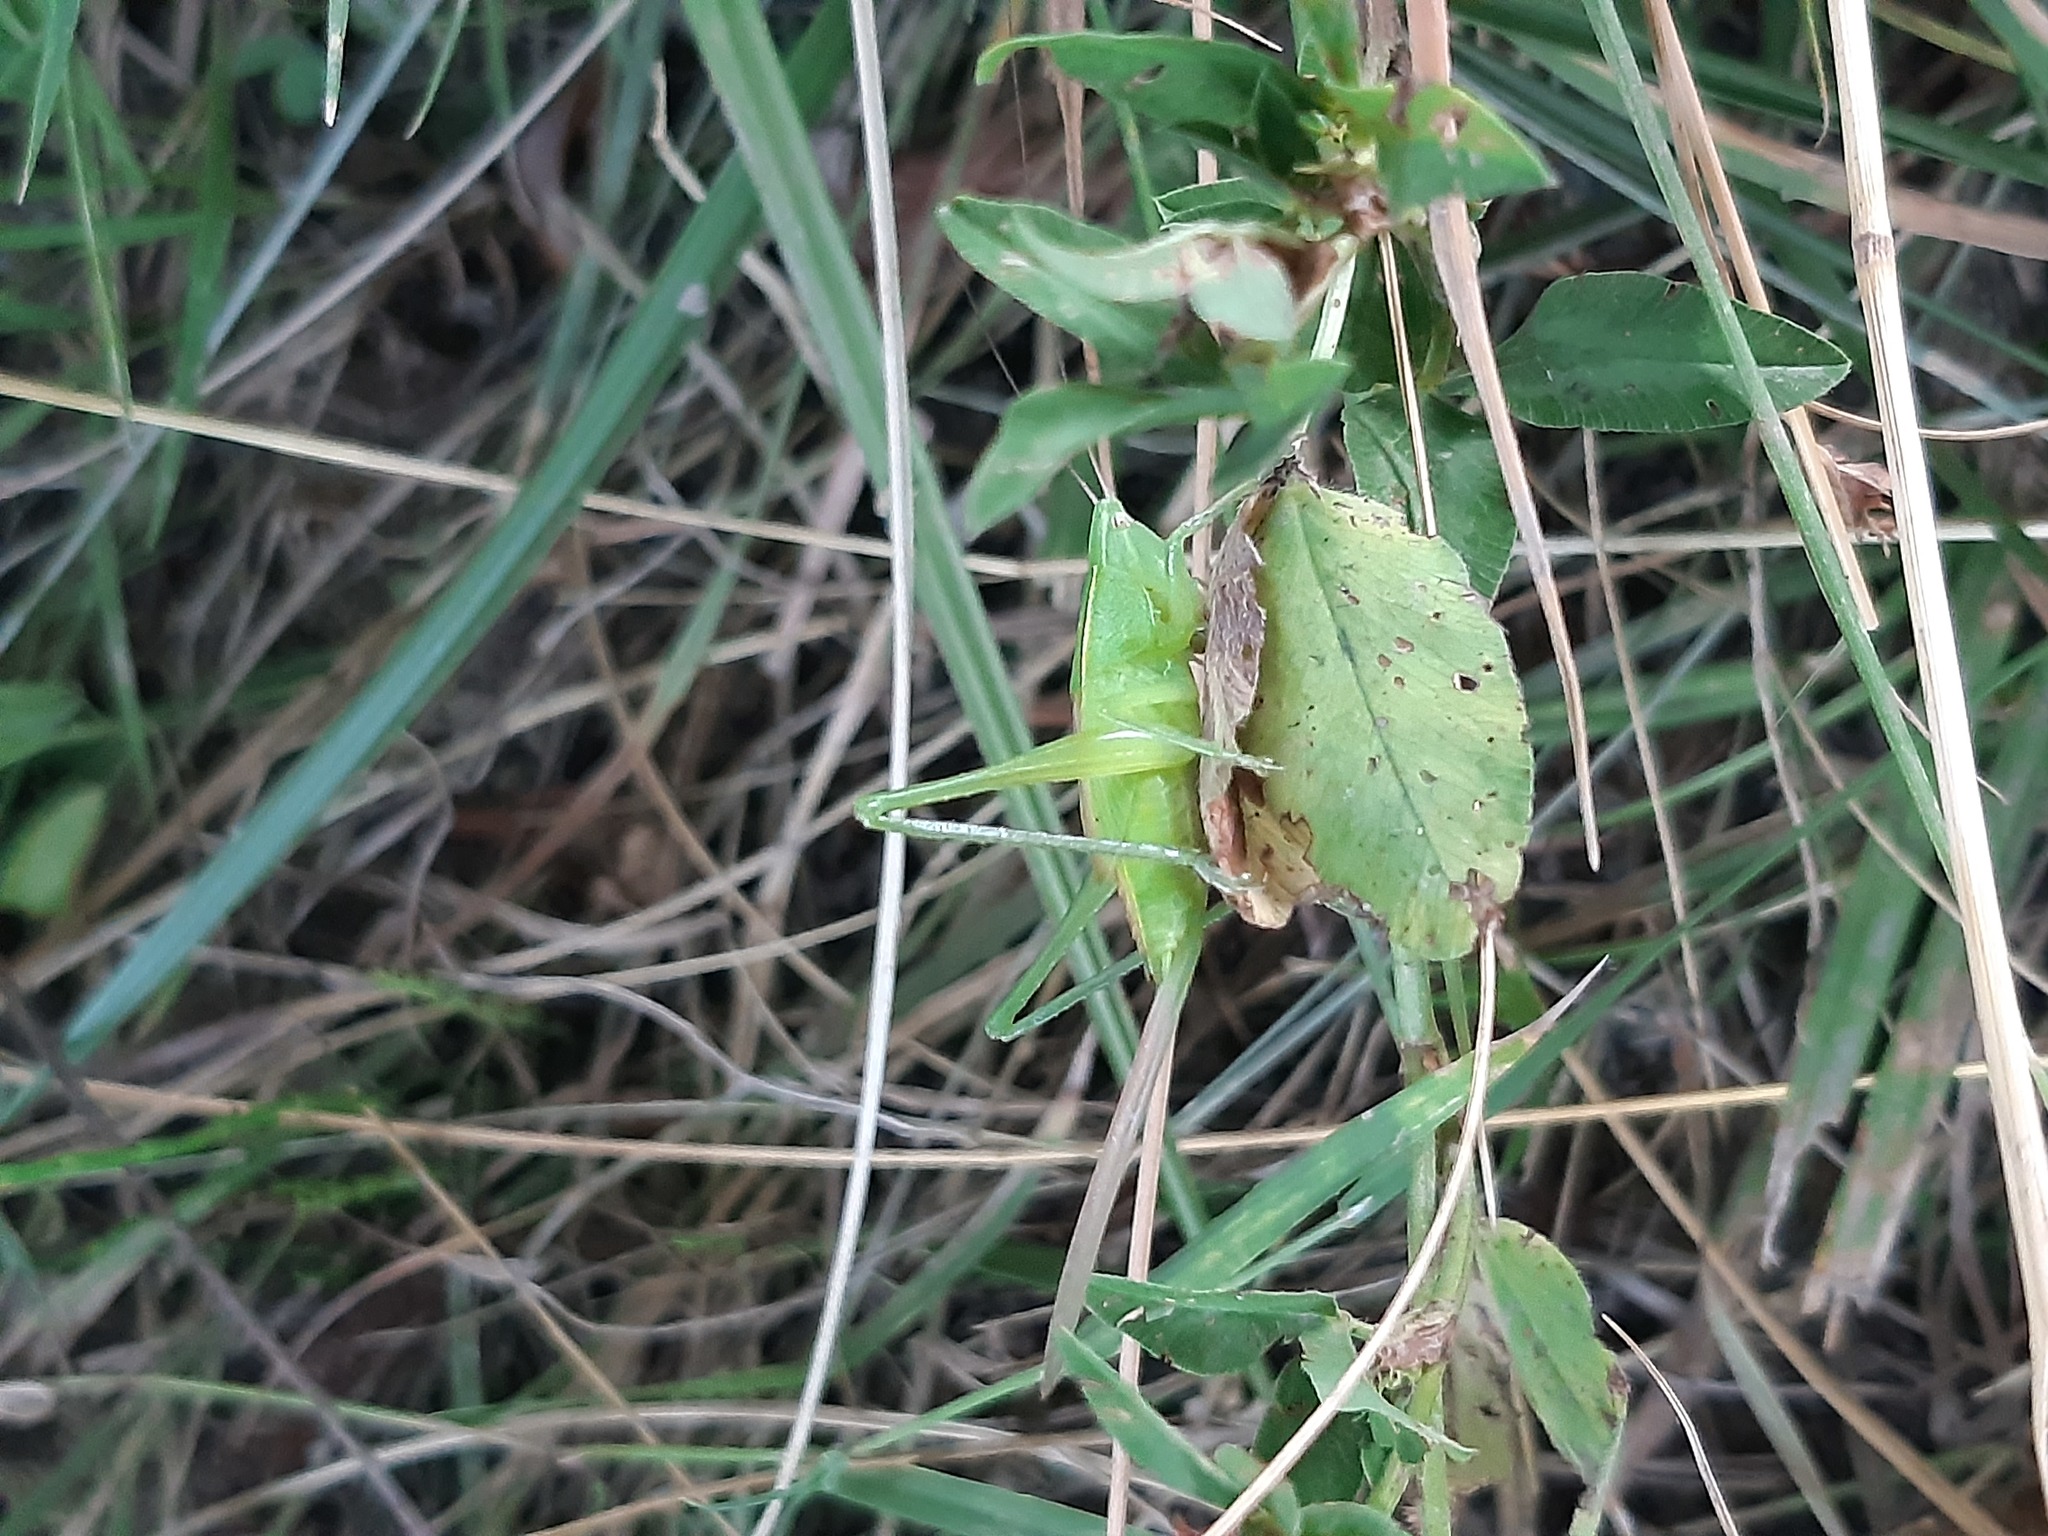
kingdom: Animalia
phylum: Arthropoda
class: Insecta
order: Orthoptera
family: Tettigoniidae
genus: Ruspolia
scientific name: Ruspolia nitidula
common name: Large conehead
